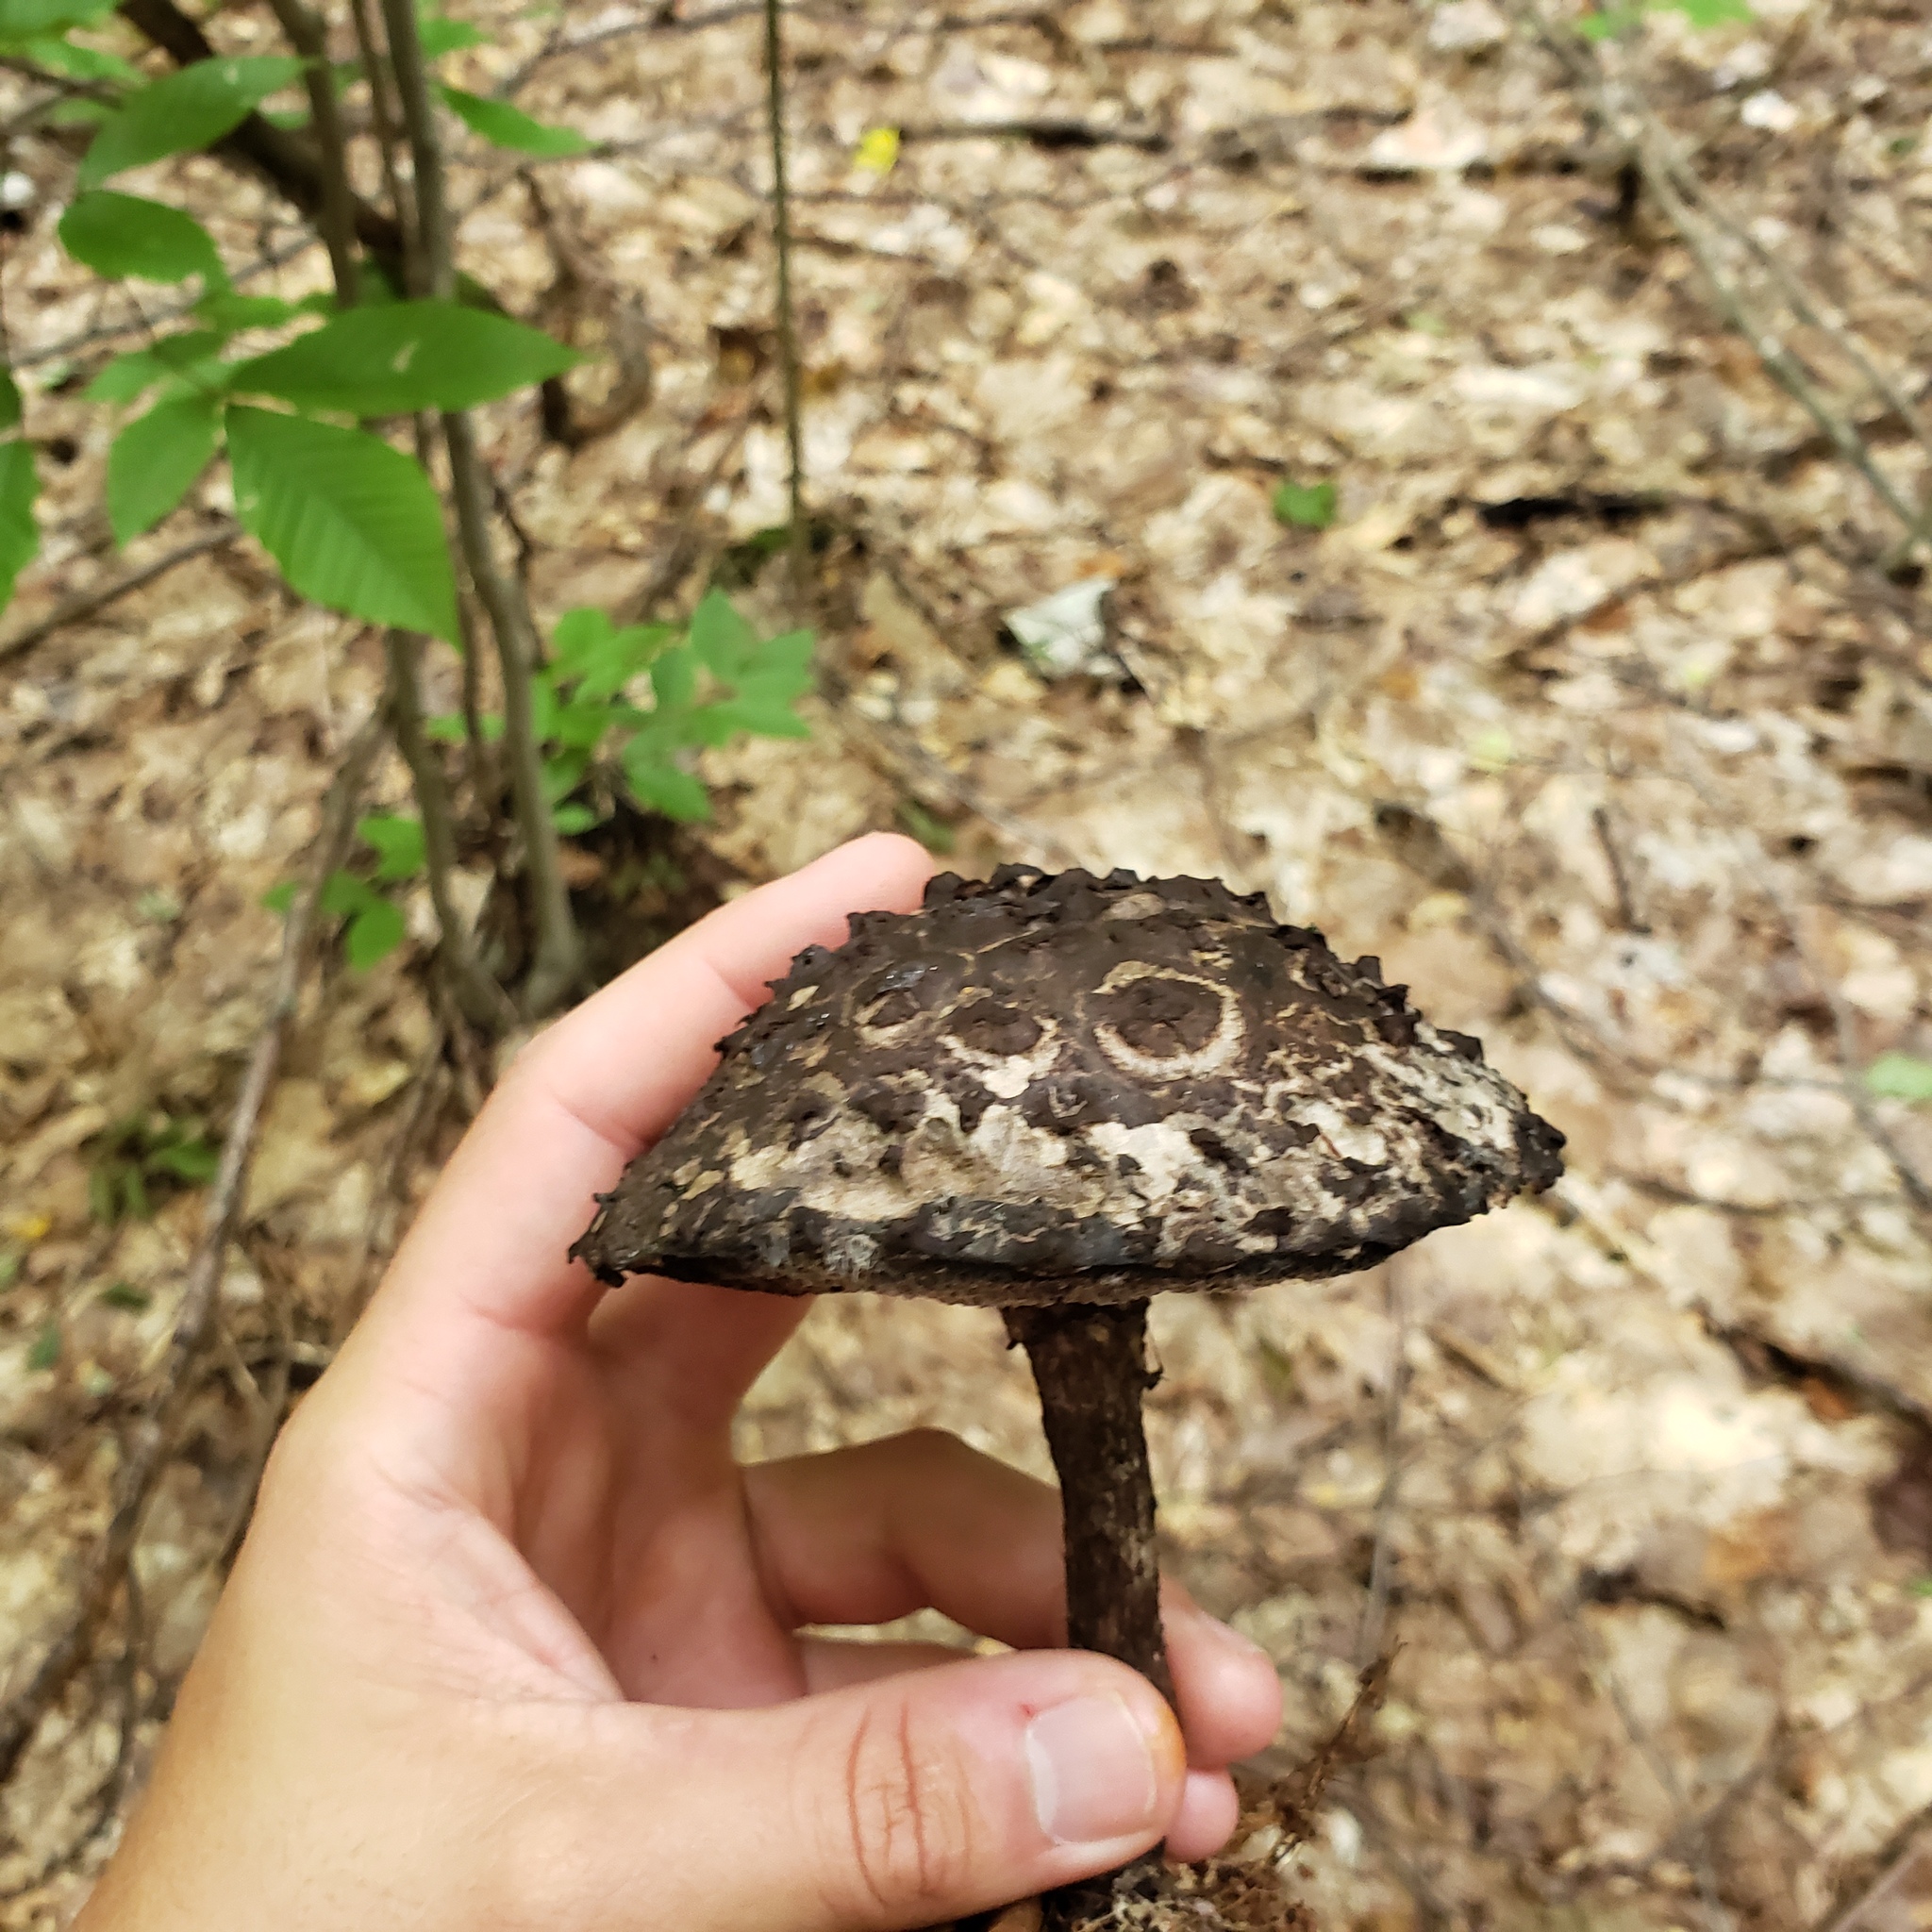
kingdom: Fungi
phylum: Basidiomycota
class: Agaricomycetes
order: Boletales
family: Boletaceae
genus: Strobilomyces
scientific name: Strobilomyces strobilaceus
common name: Old man of the woods
